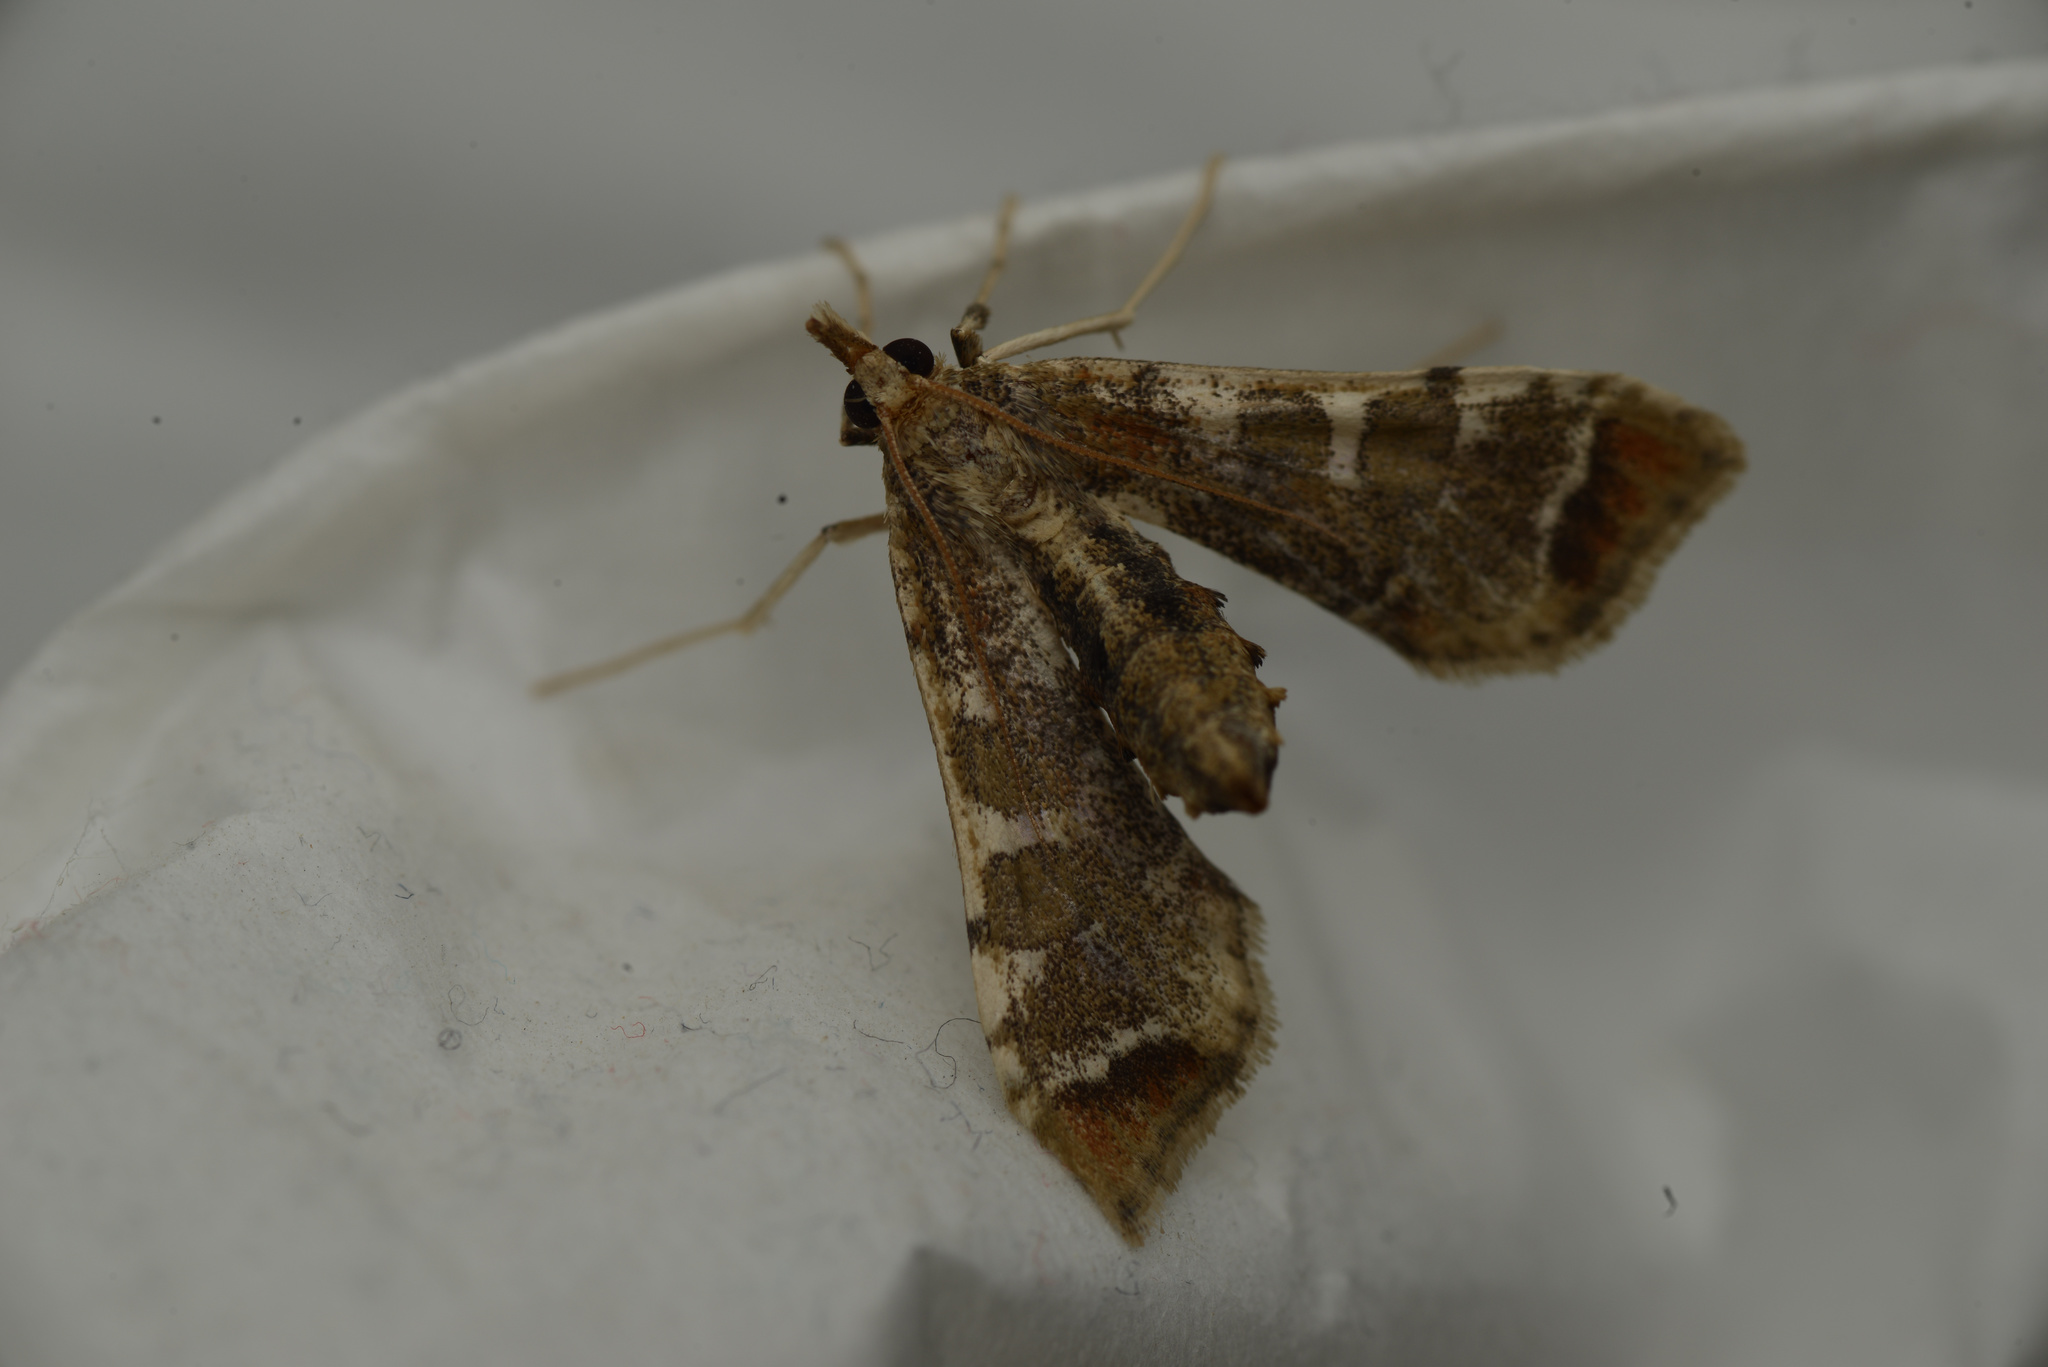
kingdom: Animalia
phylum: Arthropoda
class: Insecta
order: Lepidoptera
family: Crambidae
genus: Sceliodes
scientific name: Sceliodes cordalis
